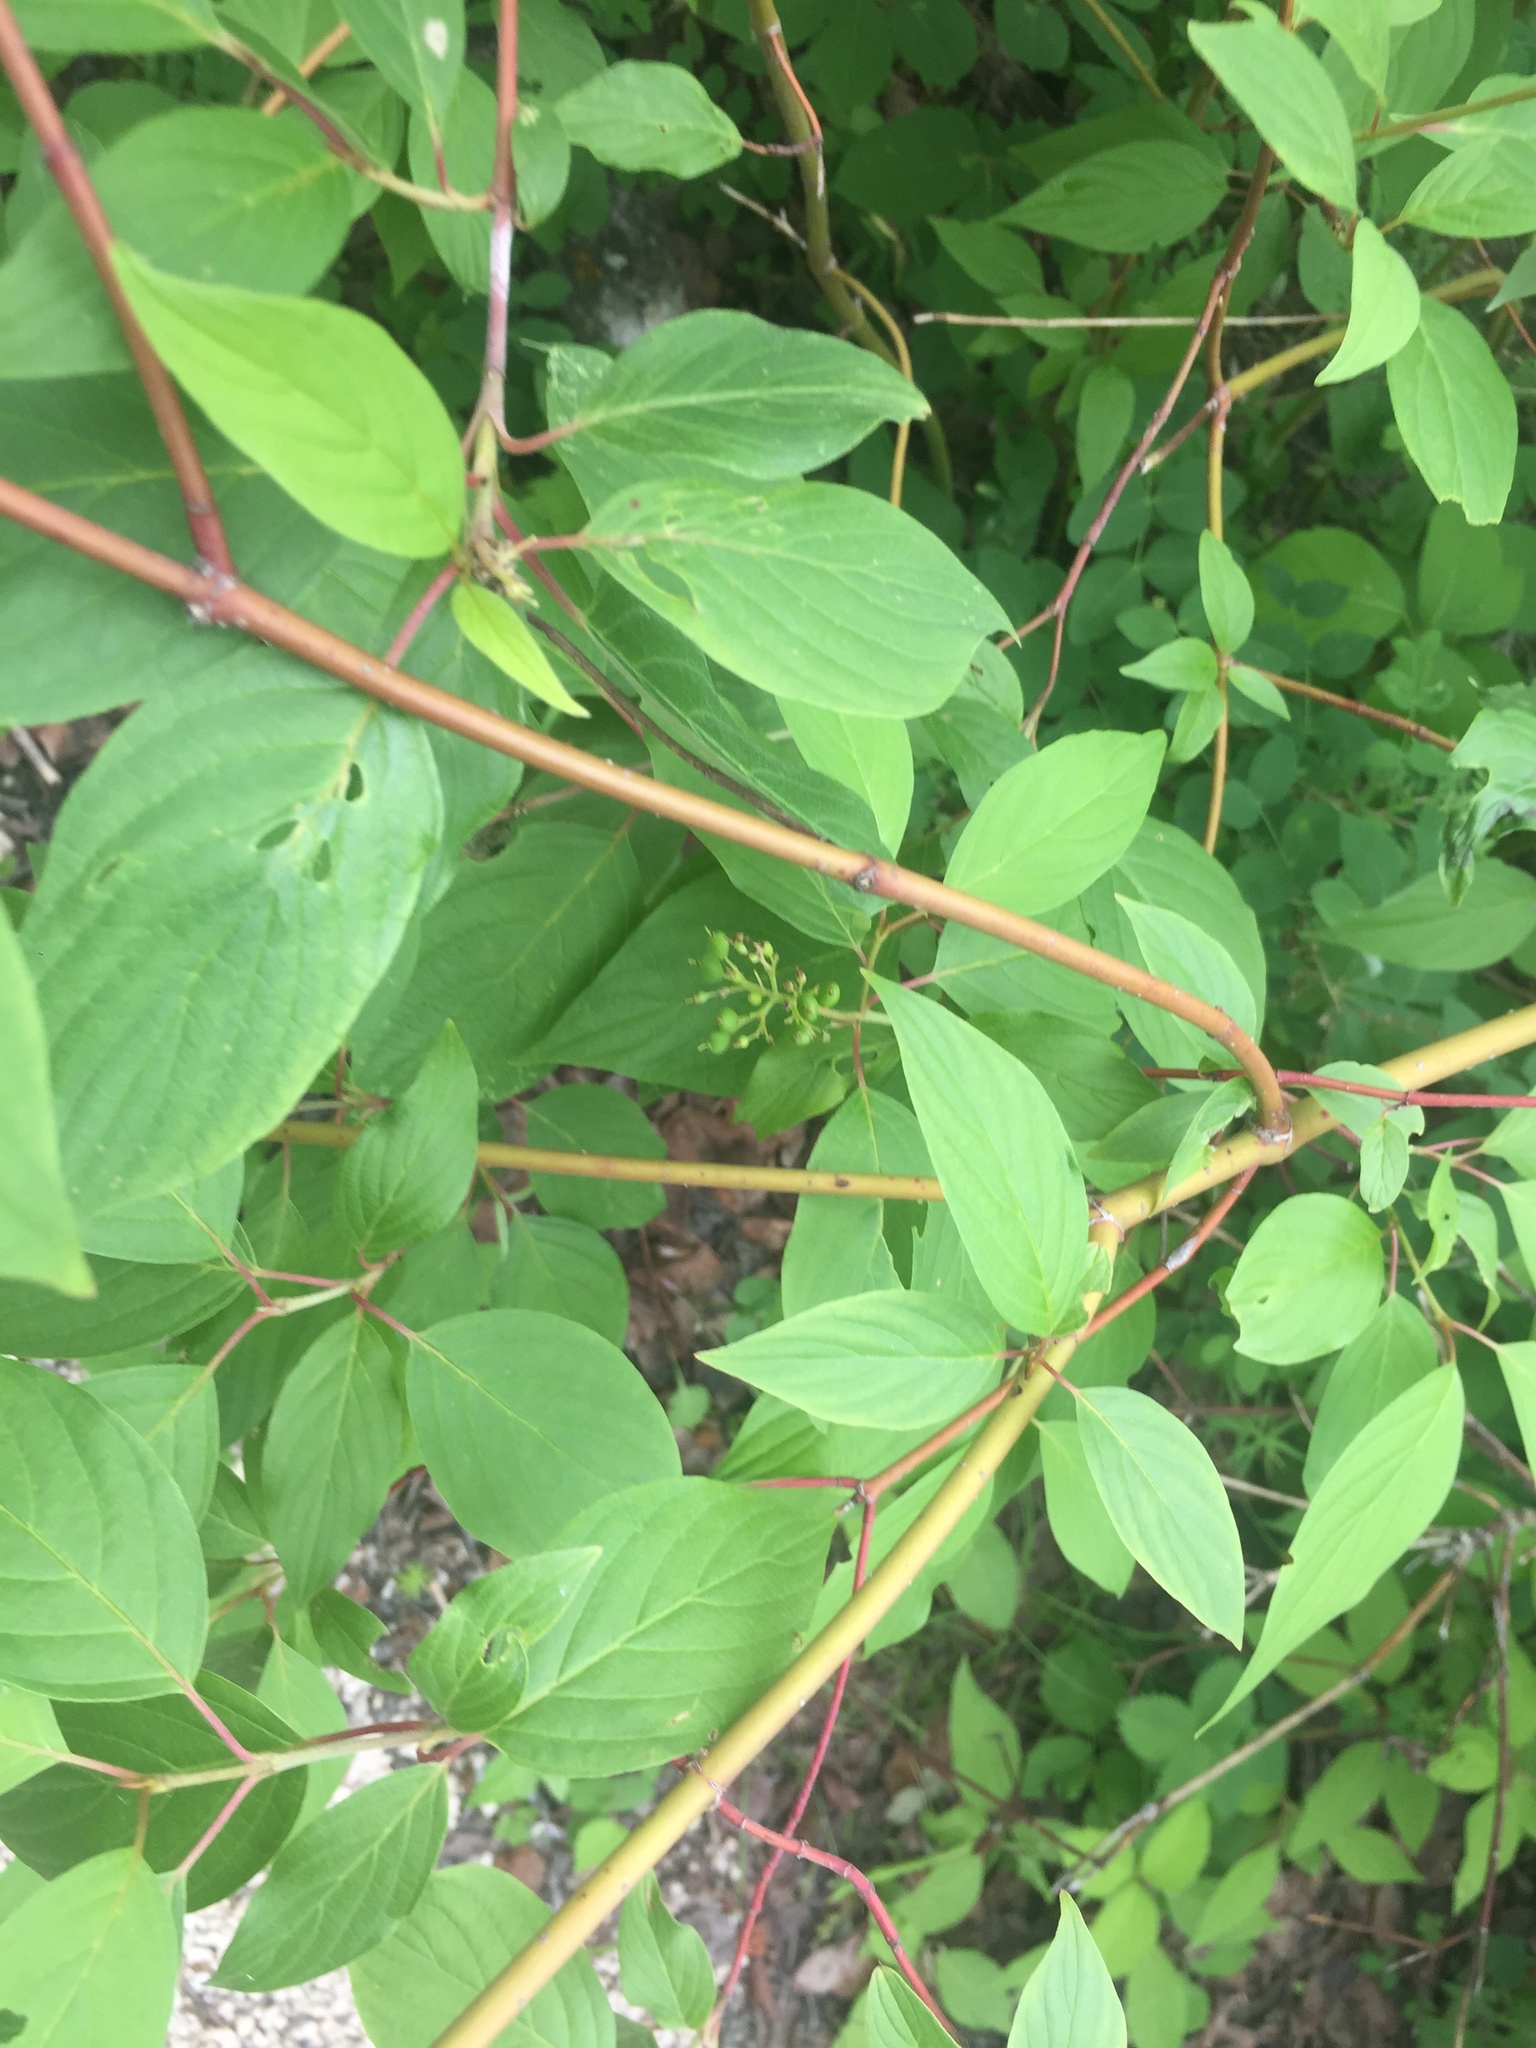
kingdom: Plantae
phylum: Tracheophyta
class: Magnoliopsida
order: Cornales
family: Cornaceae
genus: Cornus
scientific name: Cornus sericea
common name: Red-osier dogwood
